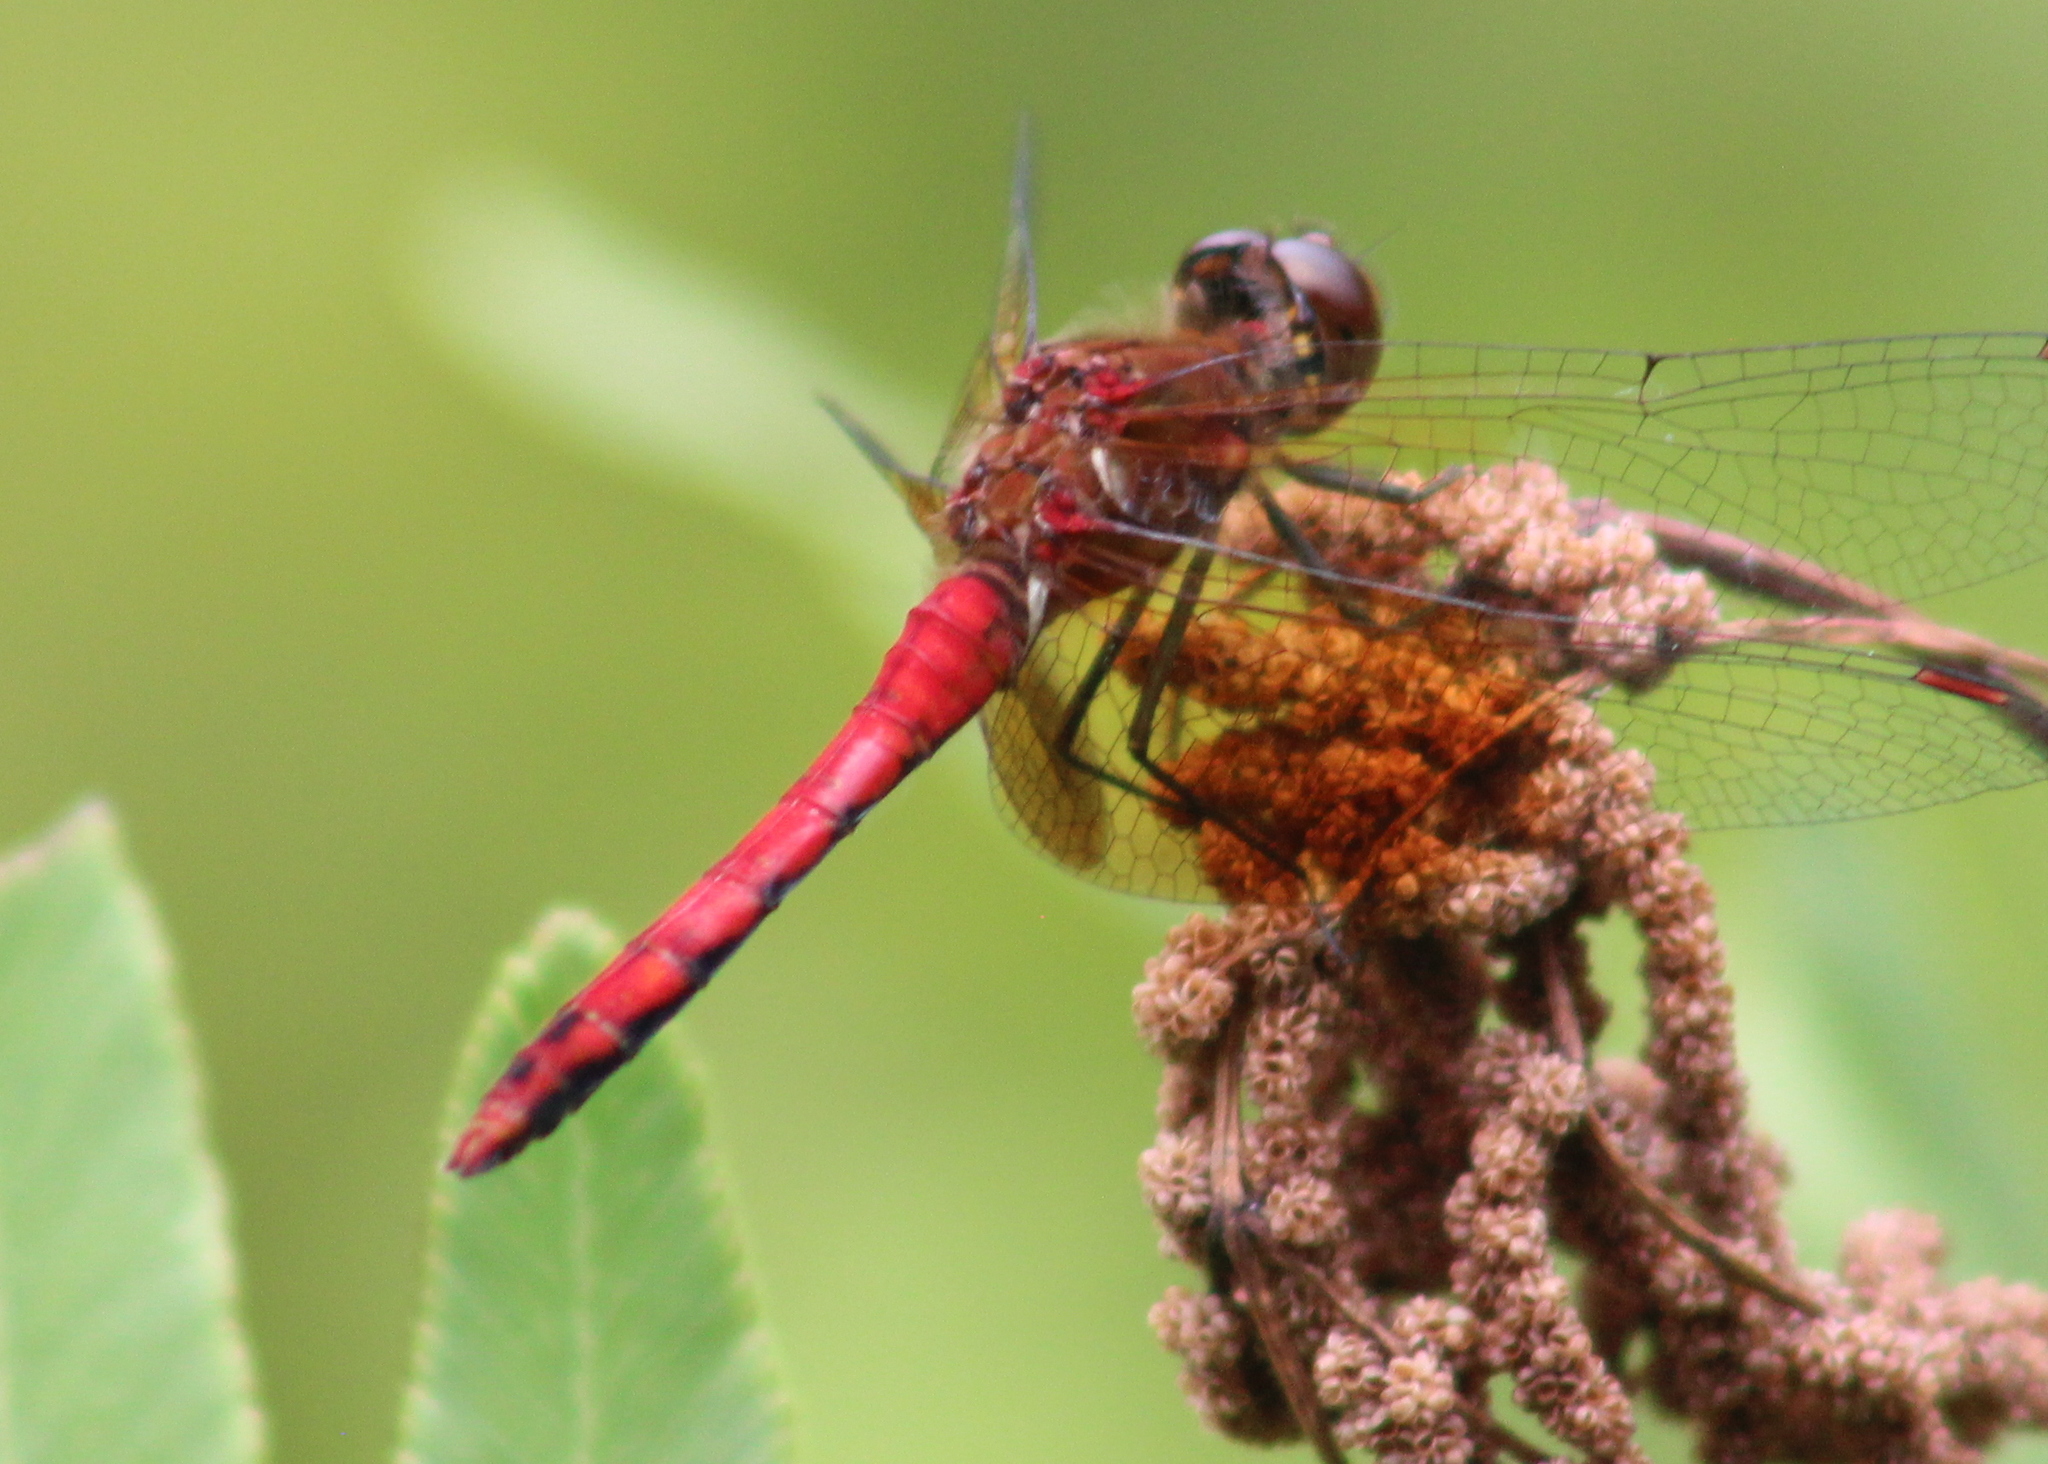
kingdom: Animalia
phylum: Arthropoda
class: Insecta
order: Odonata
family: Libellulidae
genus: Sympetrum
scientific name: Sympetrum semicinctum
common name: Band-winged meadowhawk
